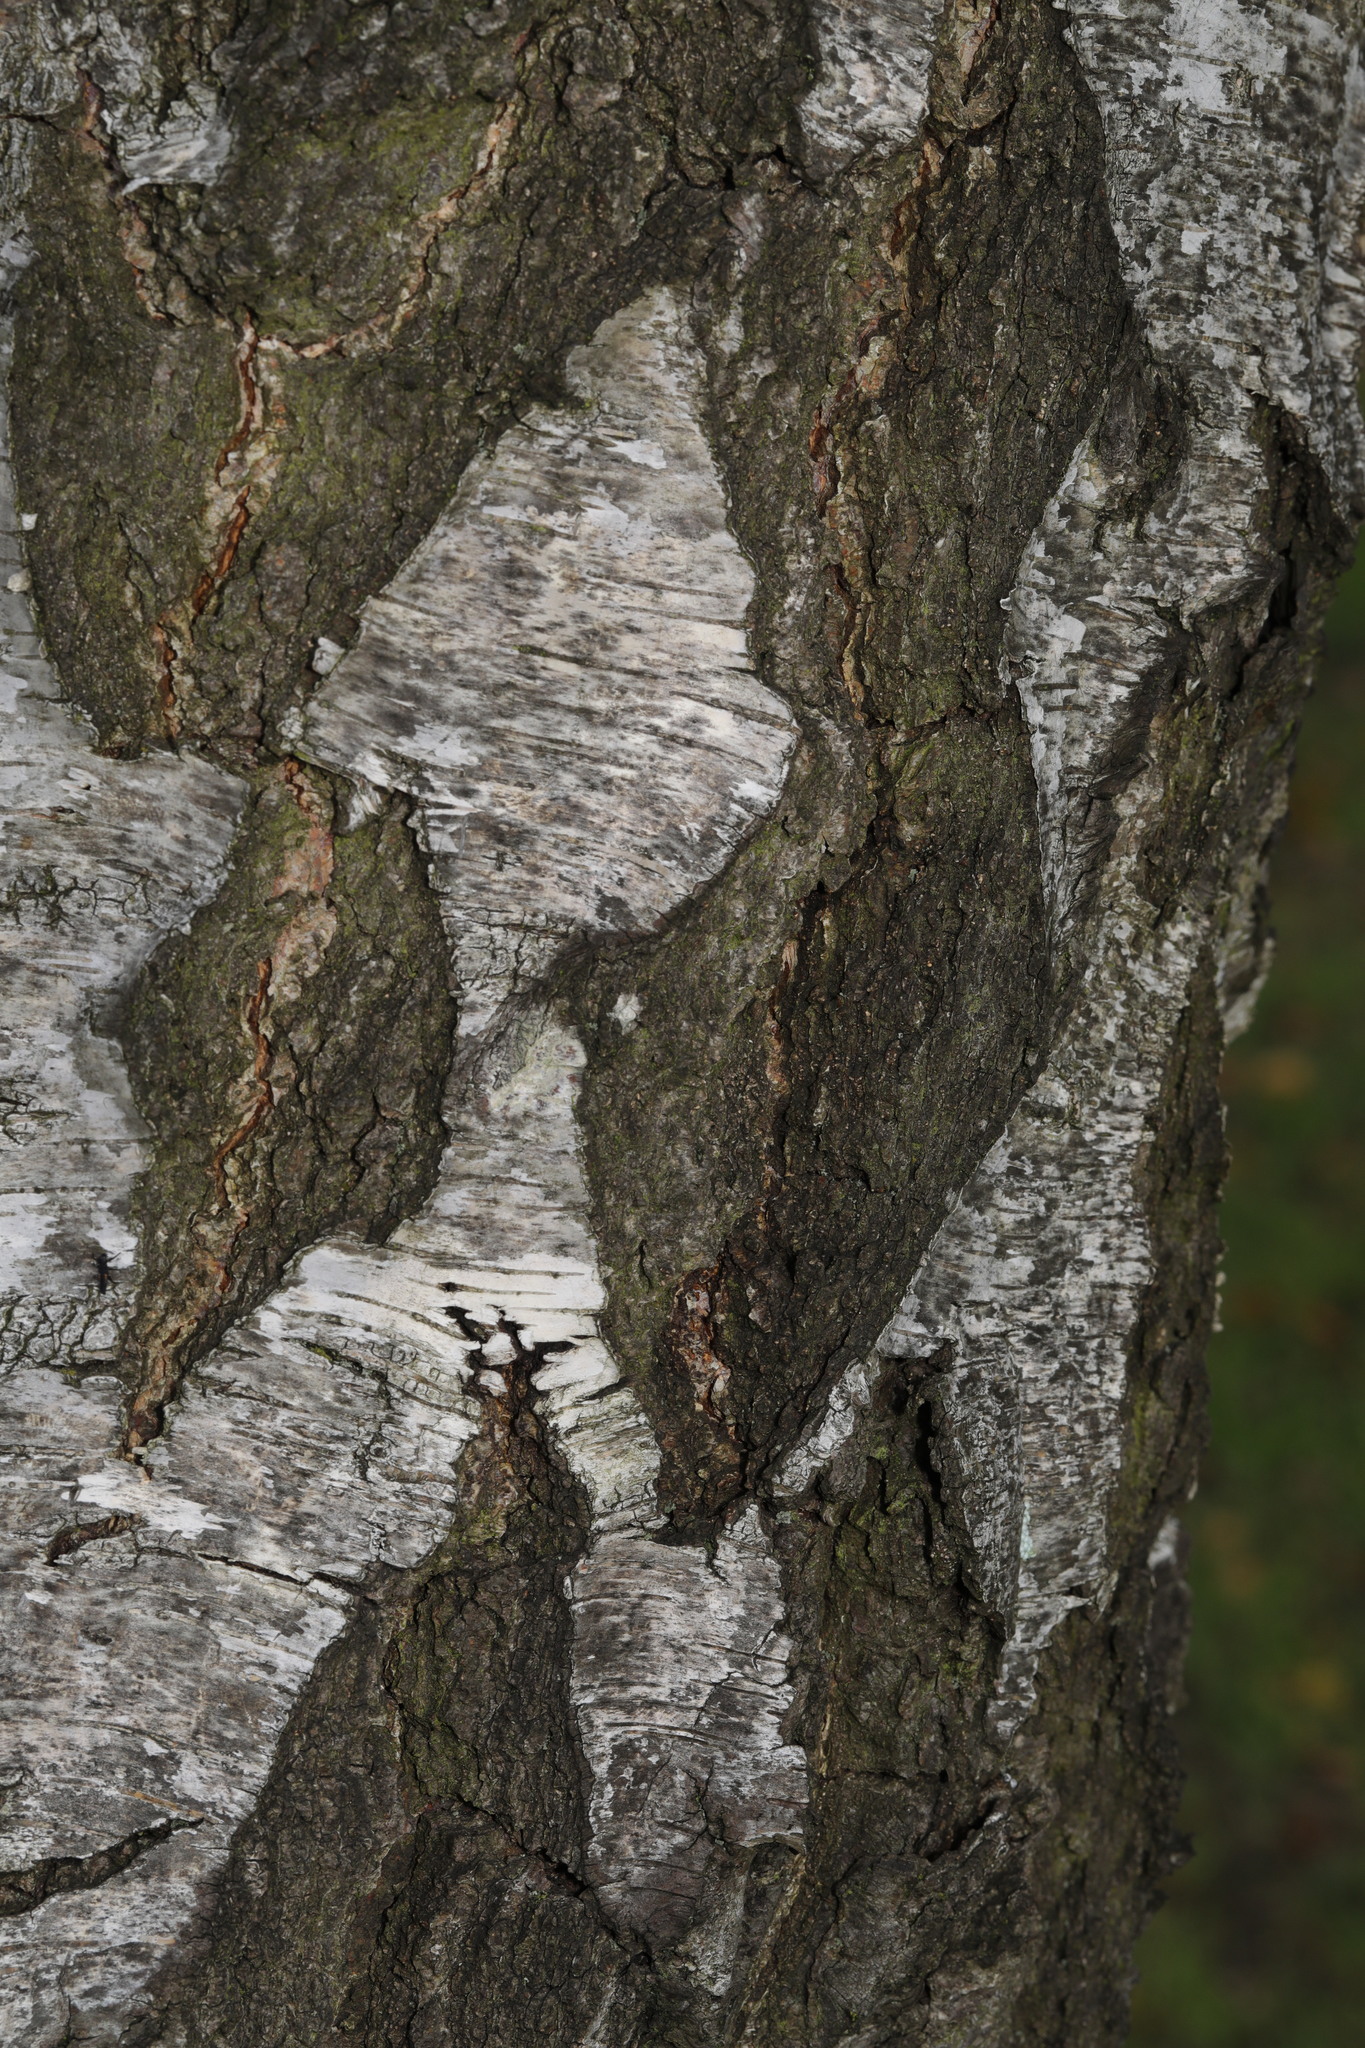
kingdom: Plantae
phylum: Tracheophyta
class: Magnoliopsida
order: Fagales
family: Betulaceae
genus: Betula
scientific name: Betula pendula
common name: Silver birch
